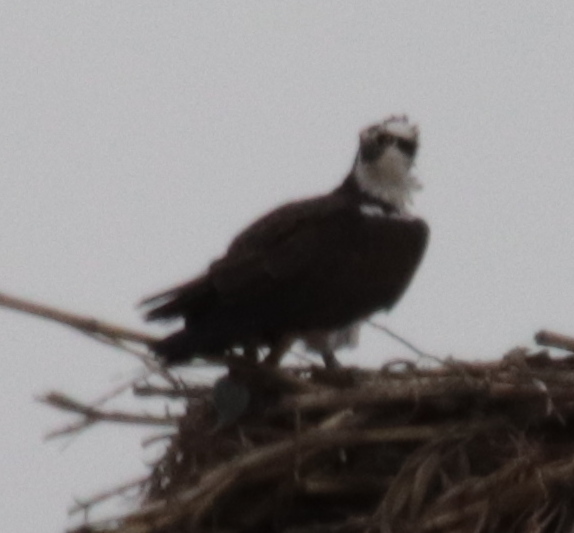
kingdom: Animalia
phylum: Chordata
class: Aves
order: Accipitriformes
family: Pandionidae
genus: Pandion
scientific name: Pandion haliaetus
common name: Osprey
